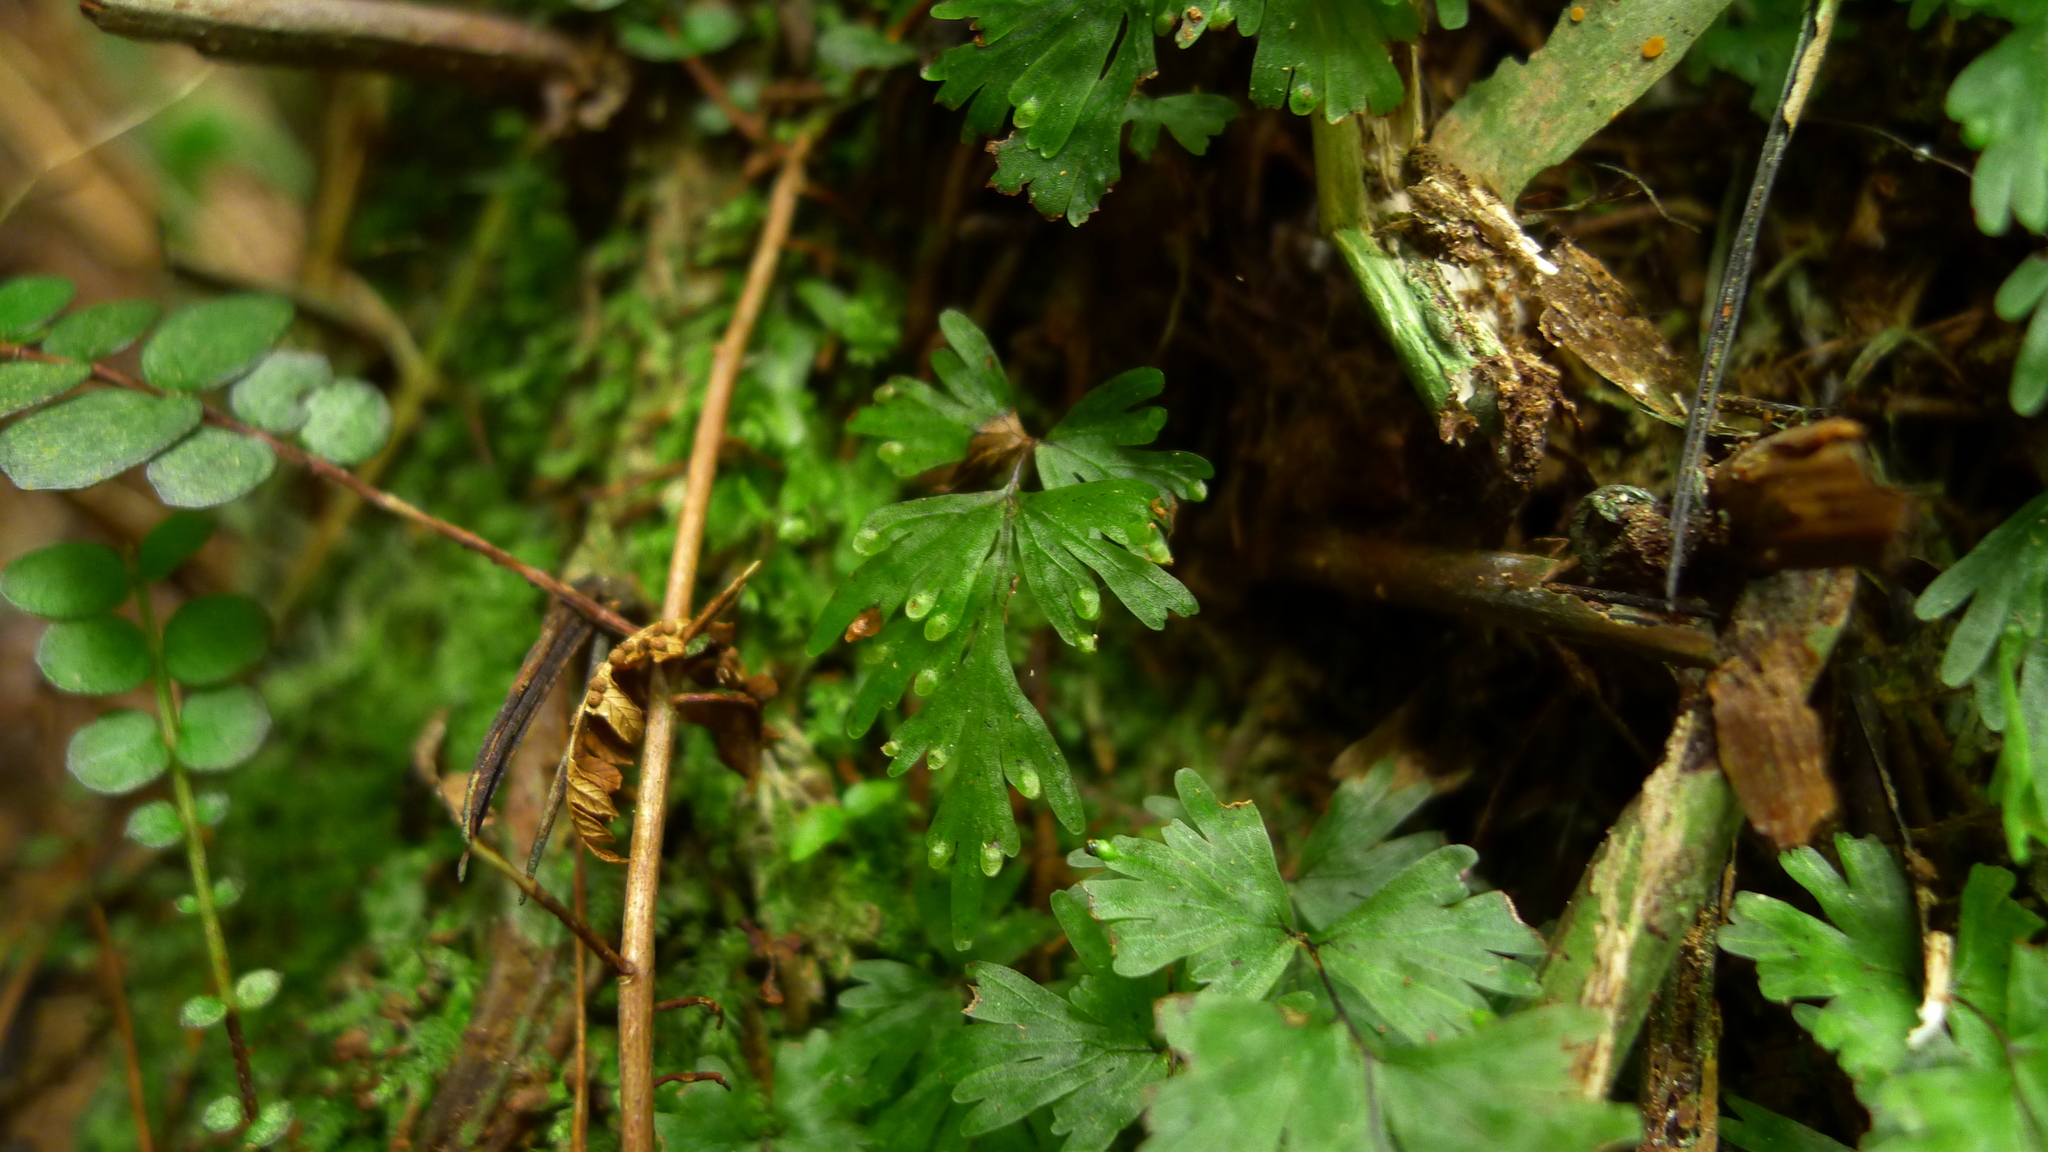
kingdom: Plantae
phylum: Tracheophyta
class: Polypodiopsida
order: Hymenophyllales
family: Hymenophyllaceae
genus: Hymenophyllum
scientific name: Hymenophyllum flabellatum
